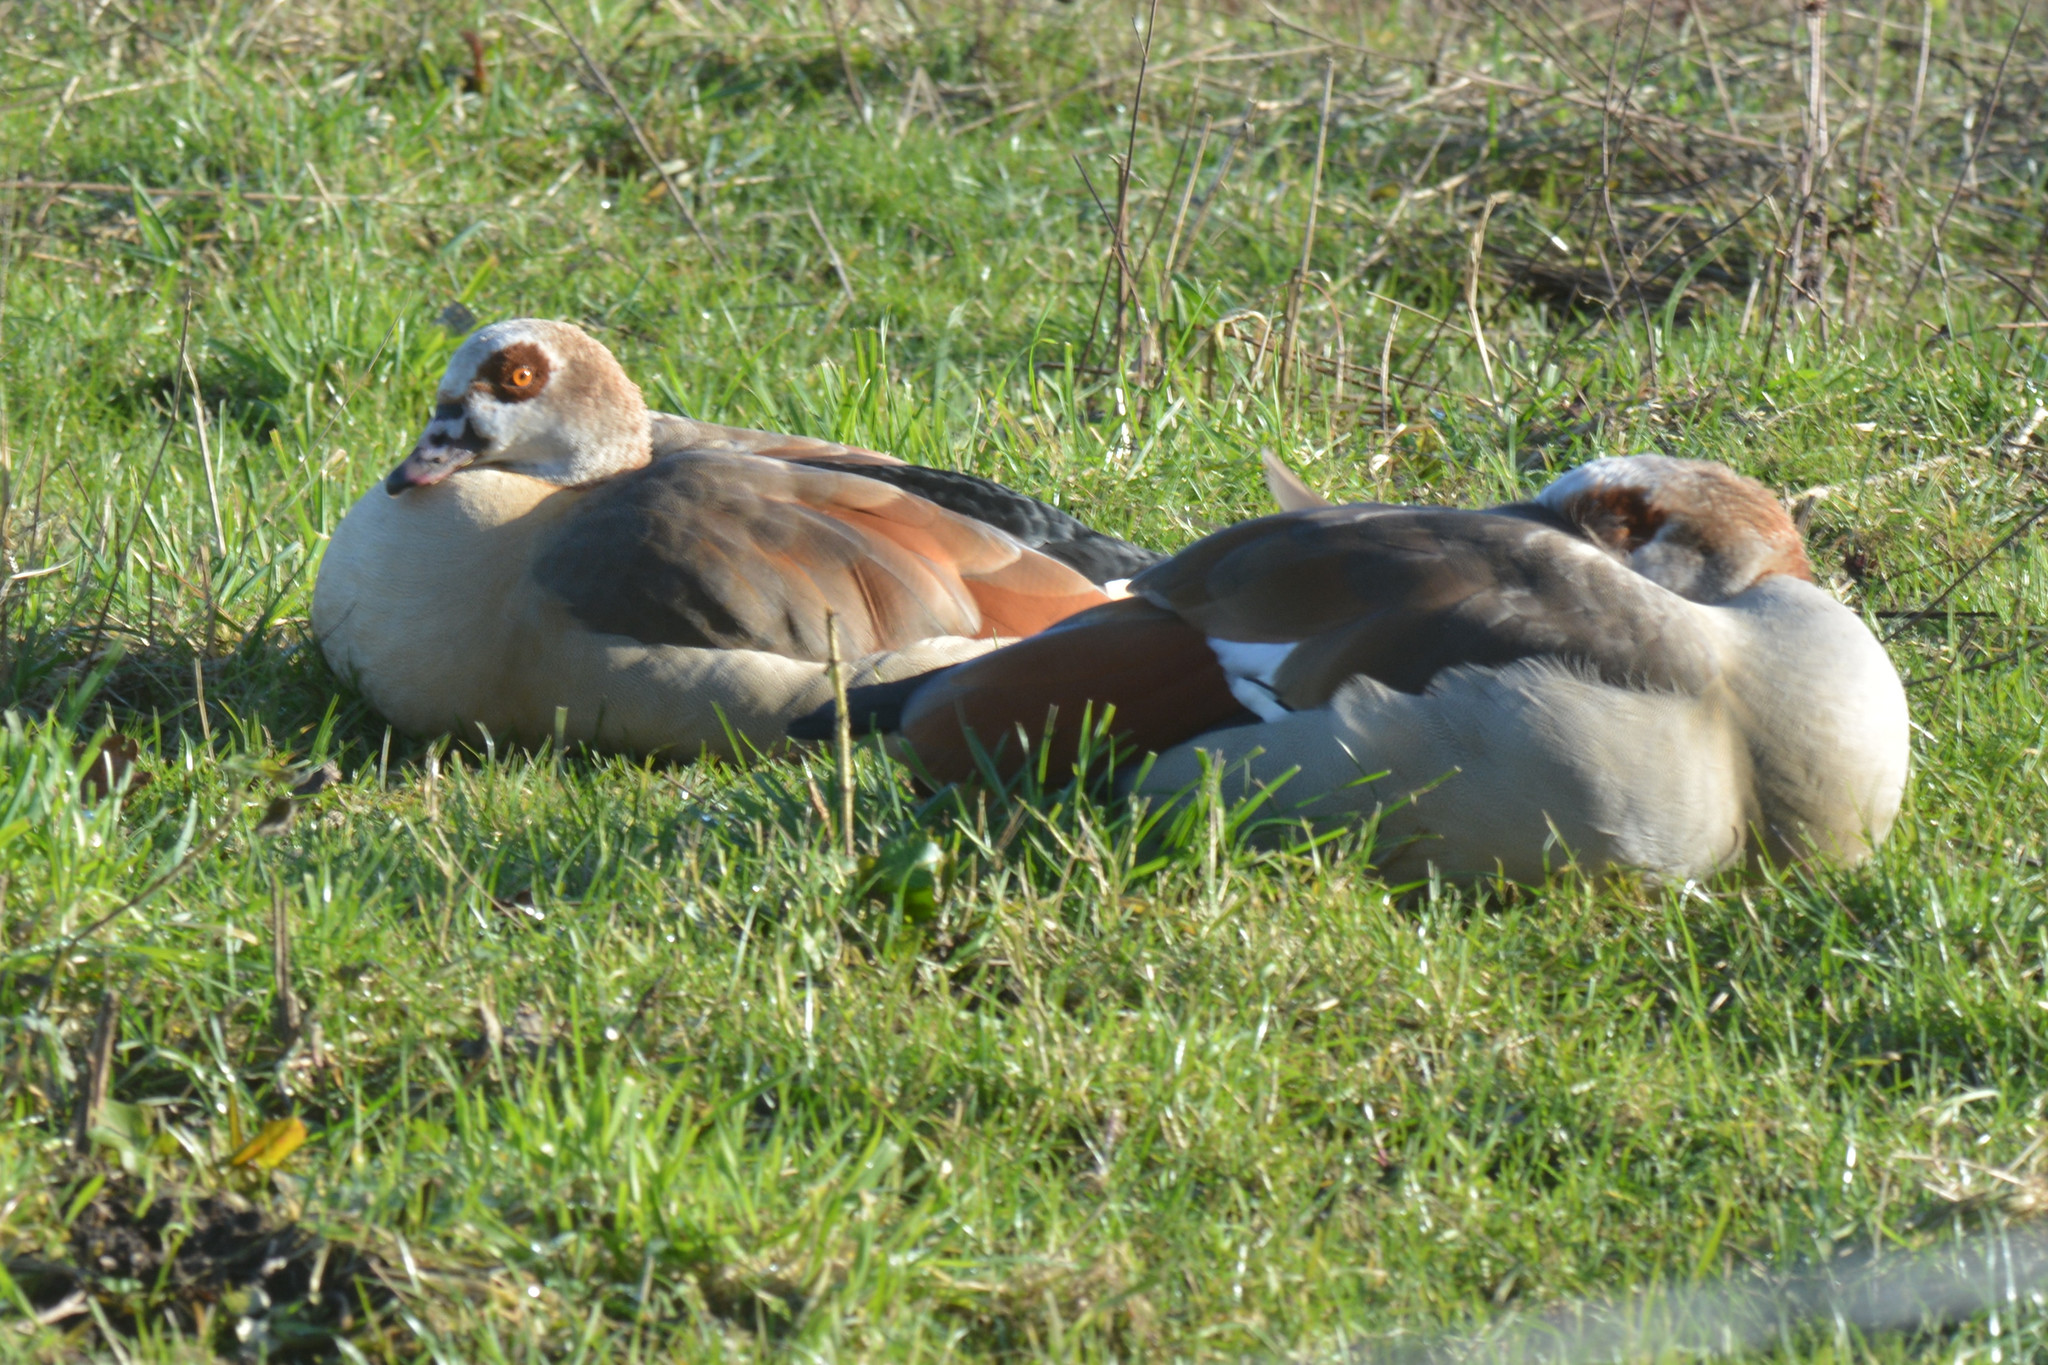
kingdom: Animalia
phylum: Chordata
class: Aves
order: Anseriformes
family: Anatidae
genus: Alopochen
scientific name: Alopochen aegyptiaca
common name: Egyptian goose
